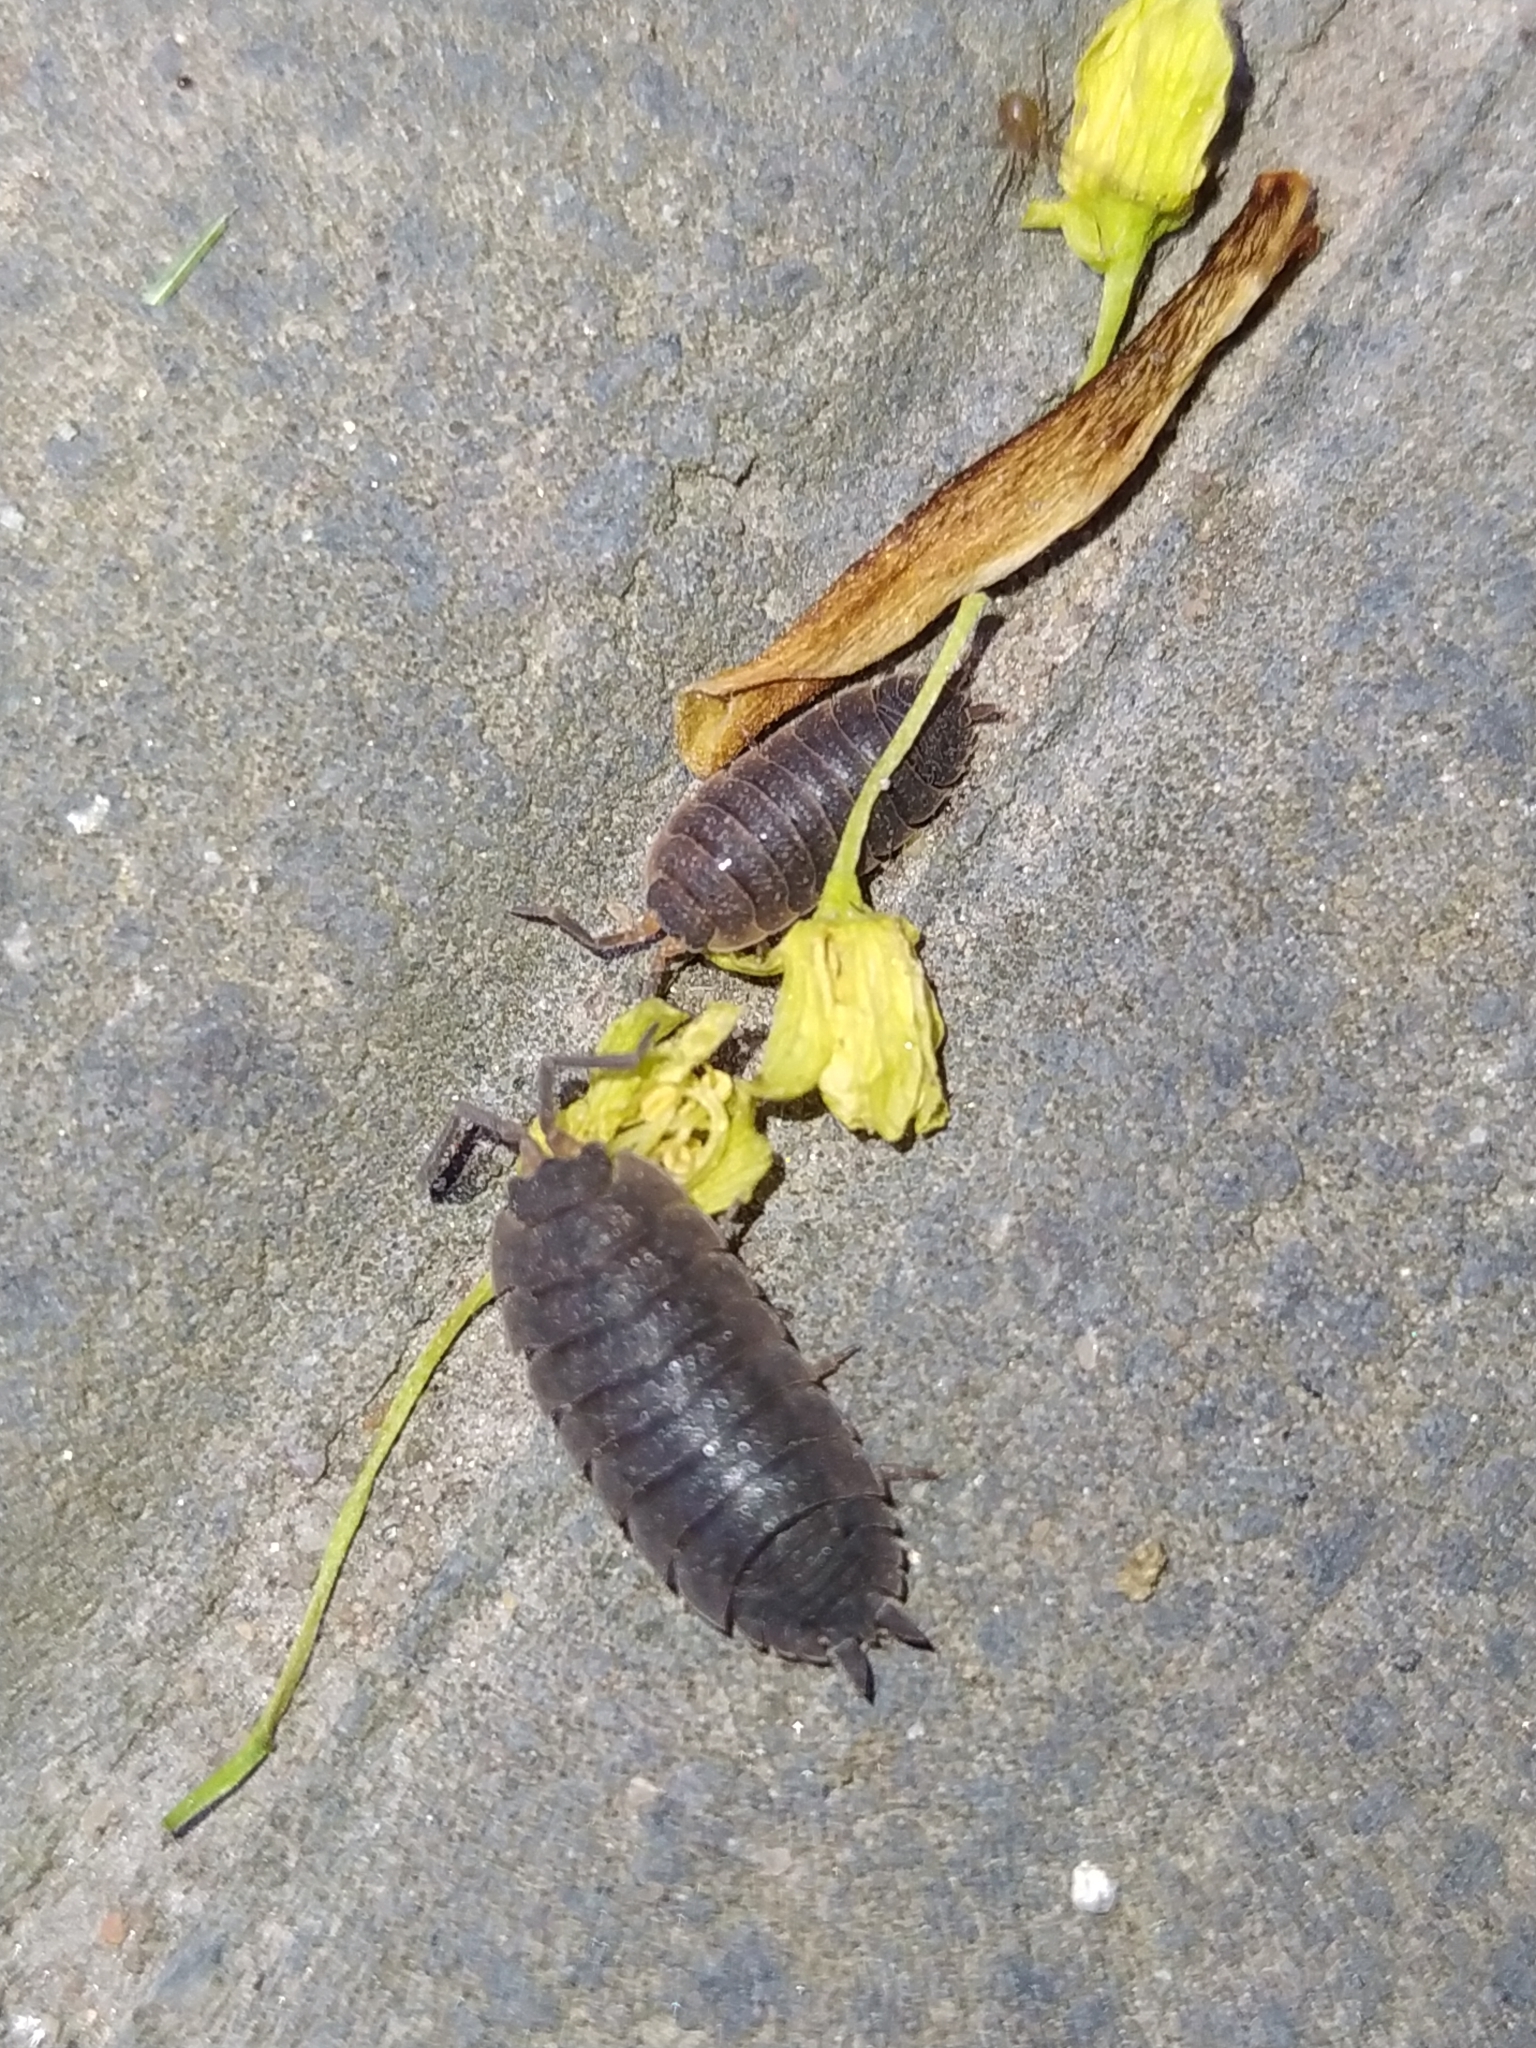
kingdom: Animalia
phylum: Arthropoda
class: Malacostraca
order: Isopoda
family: Porcellionidae
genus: Porcellio
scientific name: Porcellio scaber
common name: Common rough woodlouse
